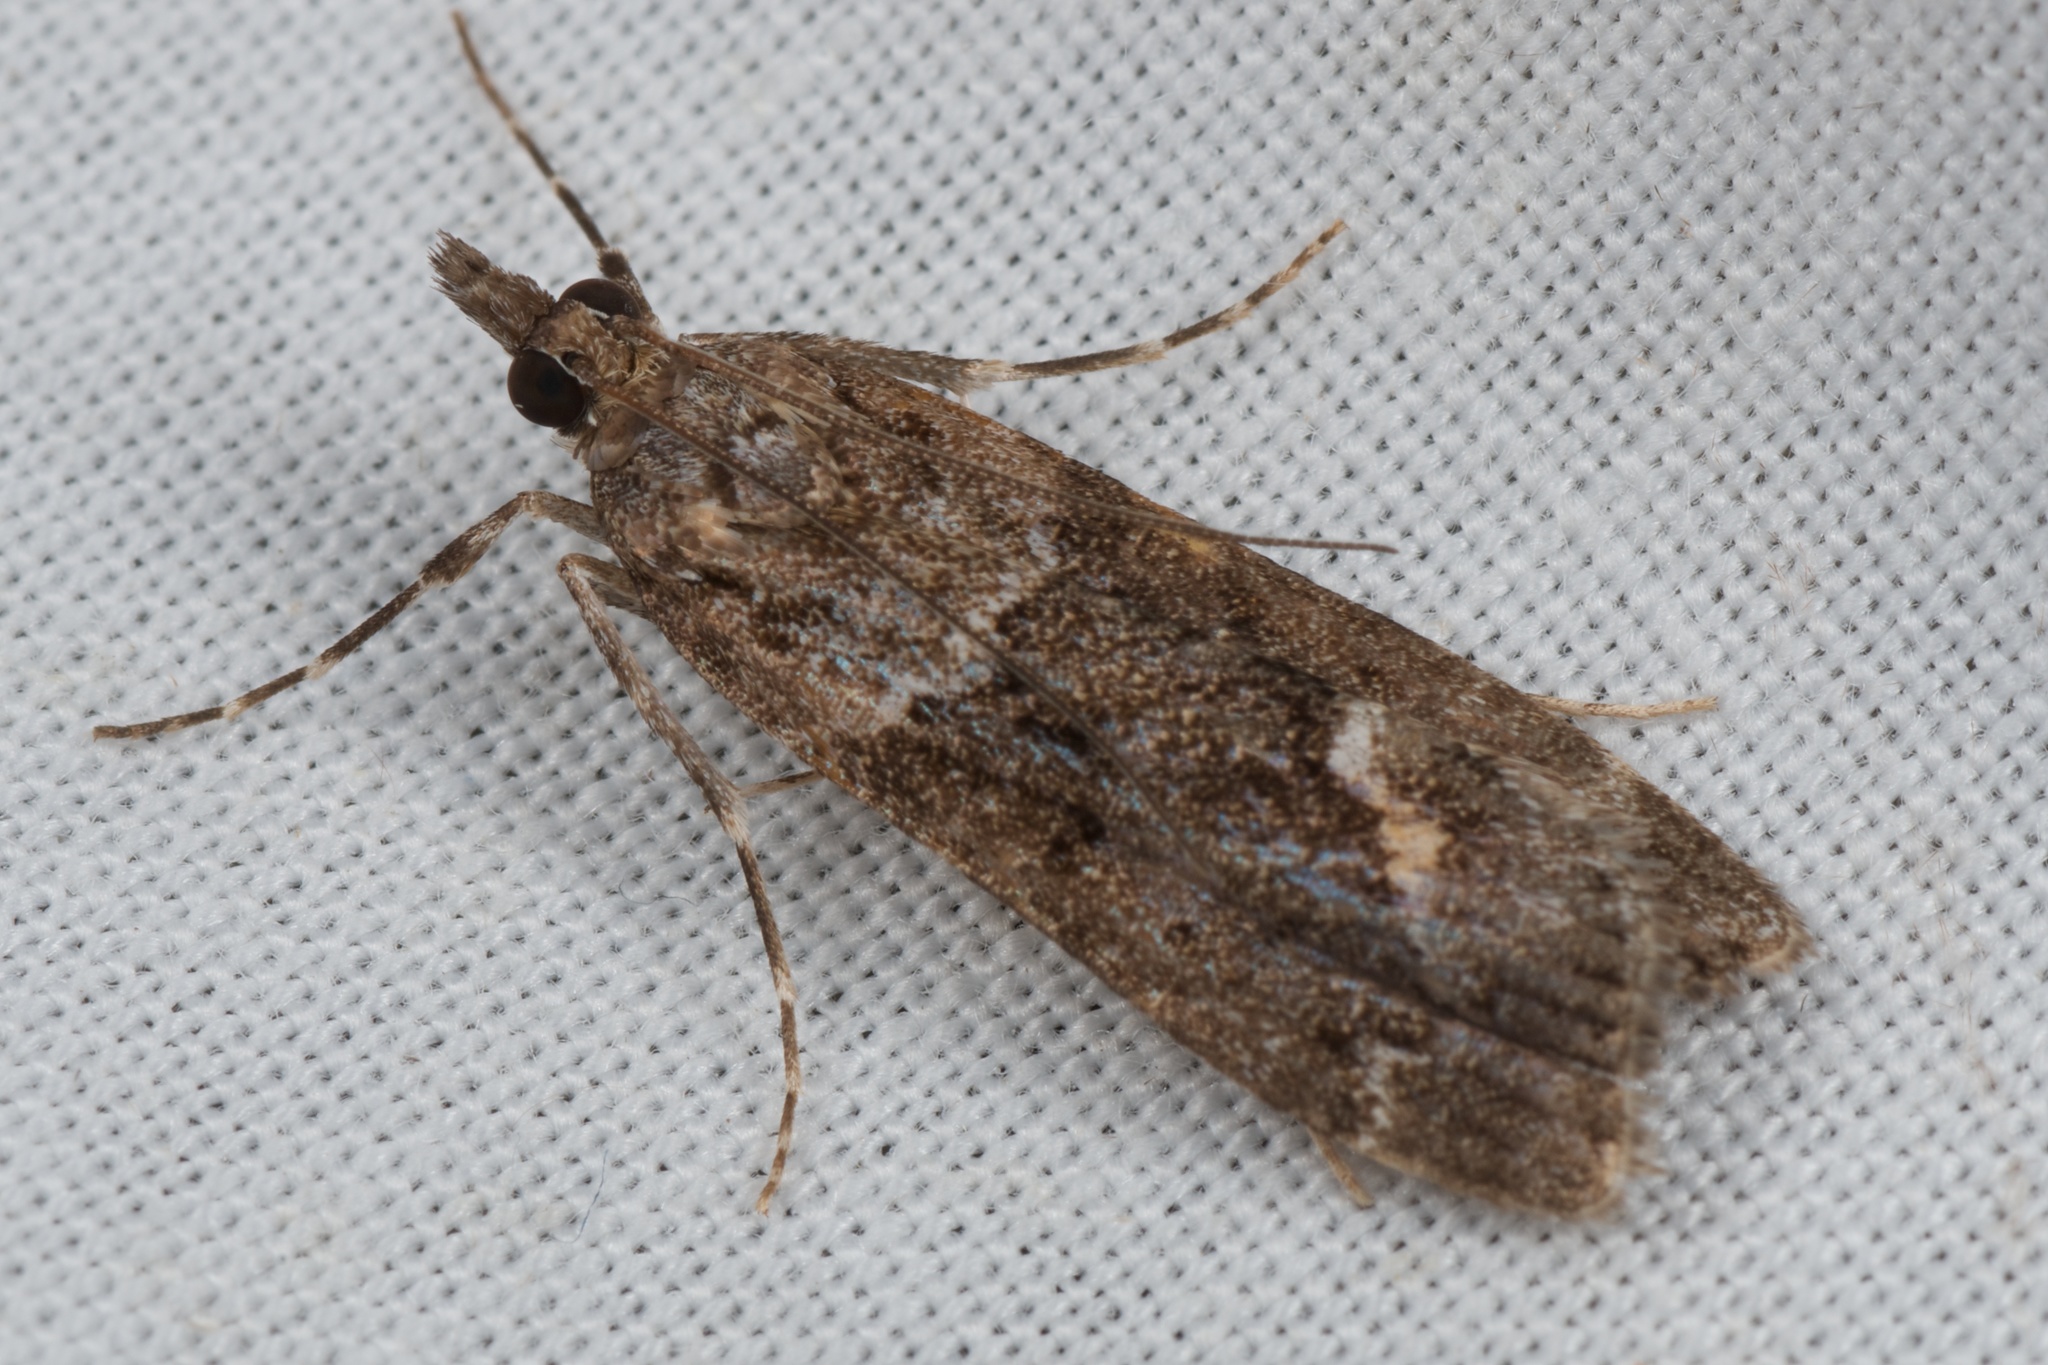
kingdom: Animalia
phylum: Arthropoda
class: Insecta
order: Lepidoptera
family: Crambidae
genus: Eudonia
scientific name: Eudonia submarginalis
